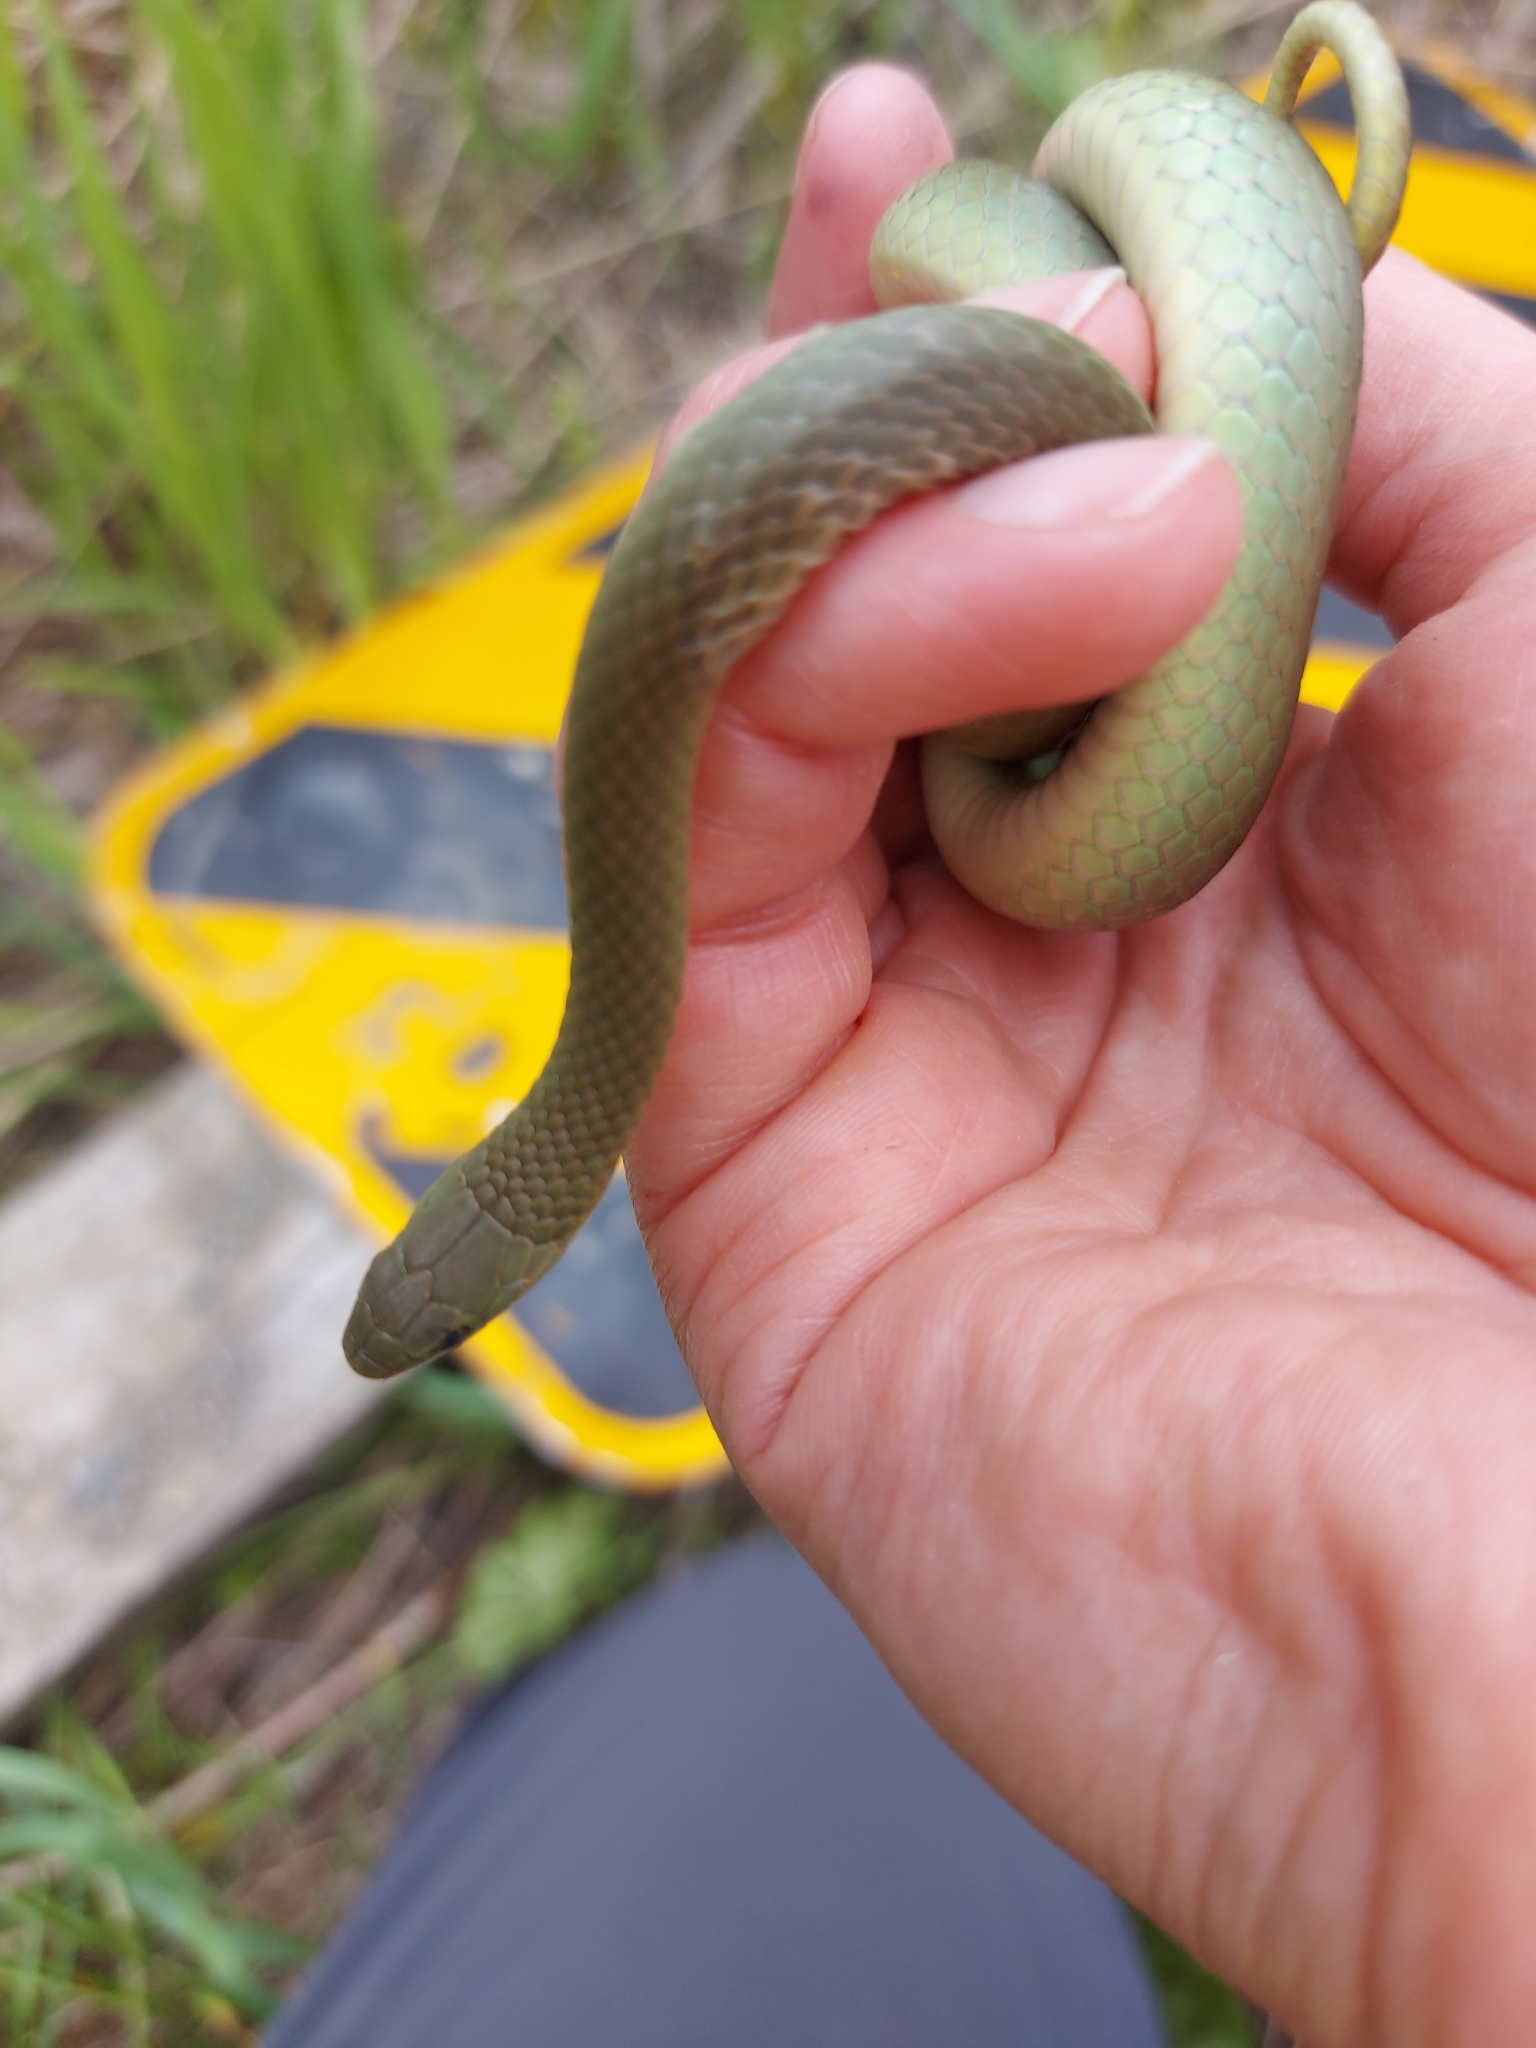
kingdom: Animalia
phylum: Chordata
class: Squamata
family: Colubridae
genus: Opheodrys
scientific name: Opheodrys vernalis
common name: Smooth green snake
